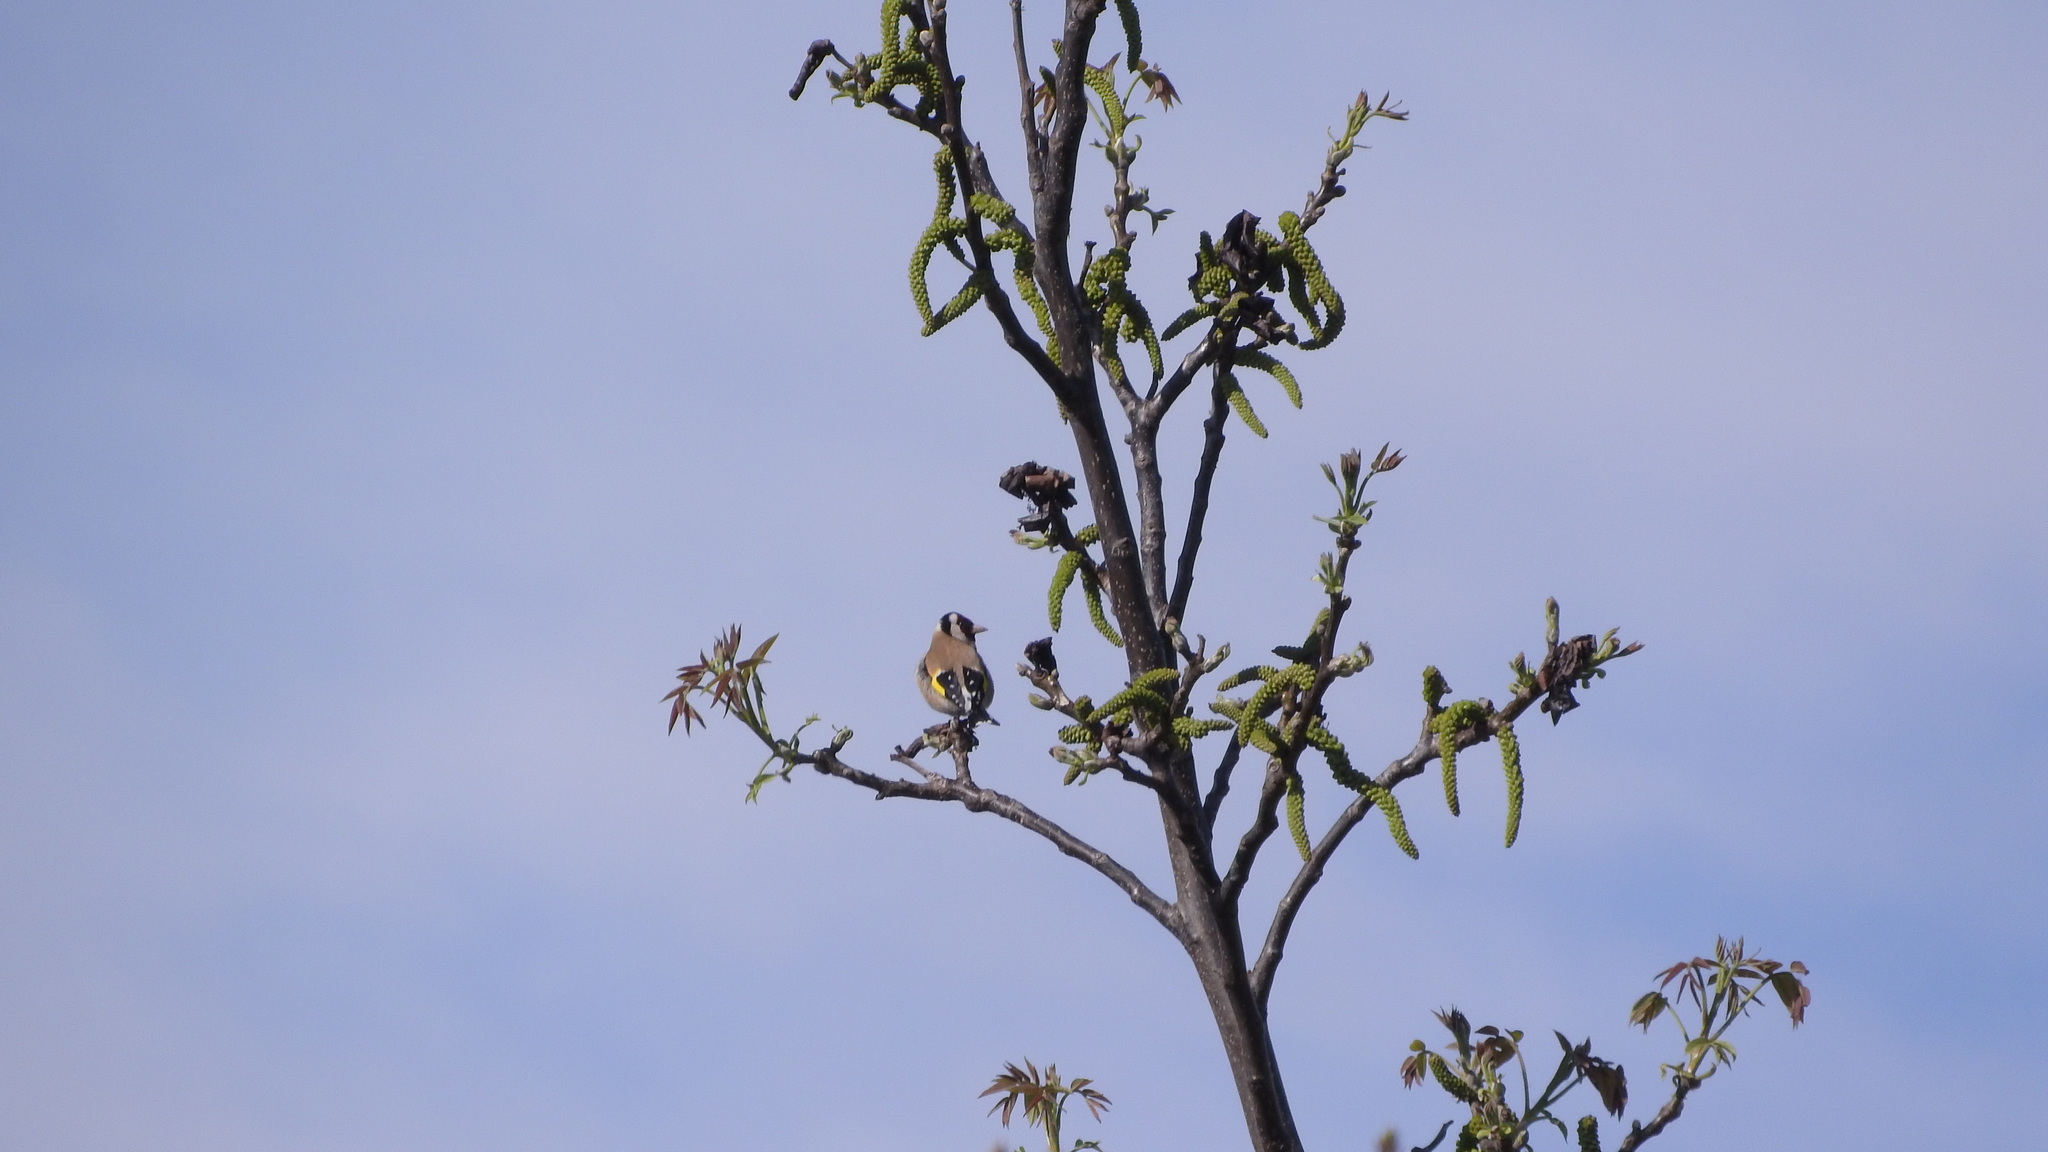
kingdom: Animalia
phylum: Chordata
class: Aves
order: Passeriformes
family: Fringillidae
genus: Carduelis
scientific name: Carduelis carduelis
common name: European goldfinch
